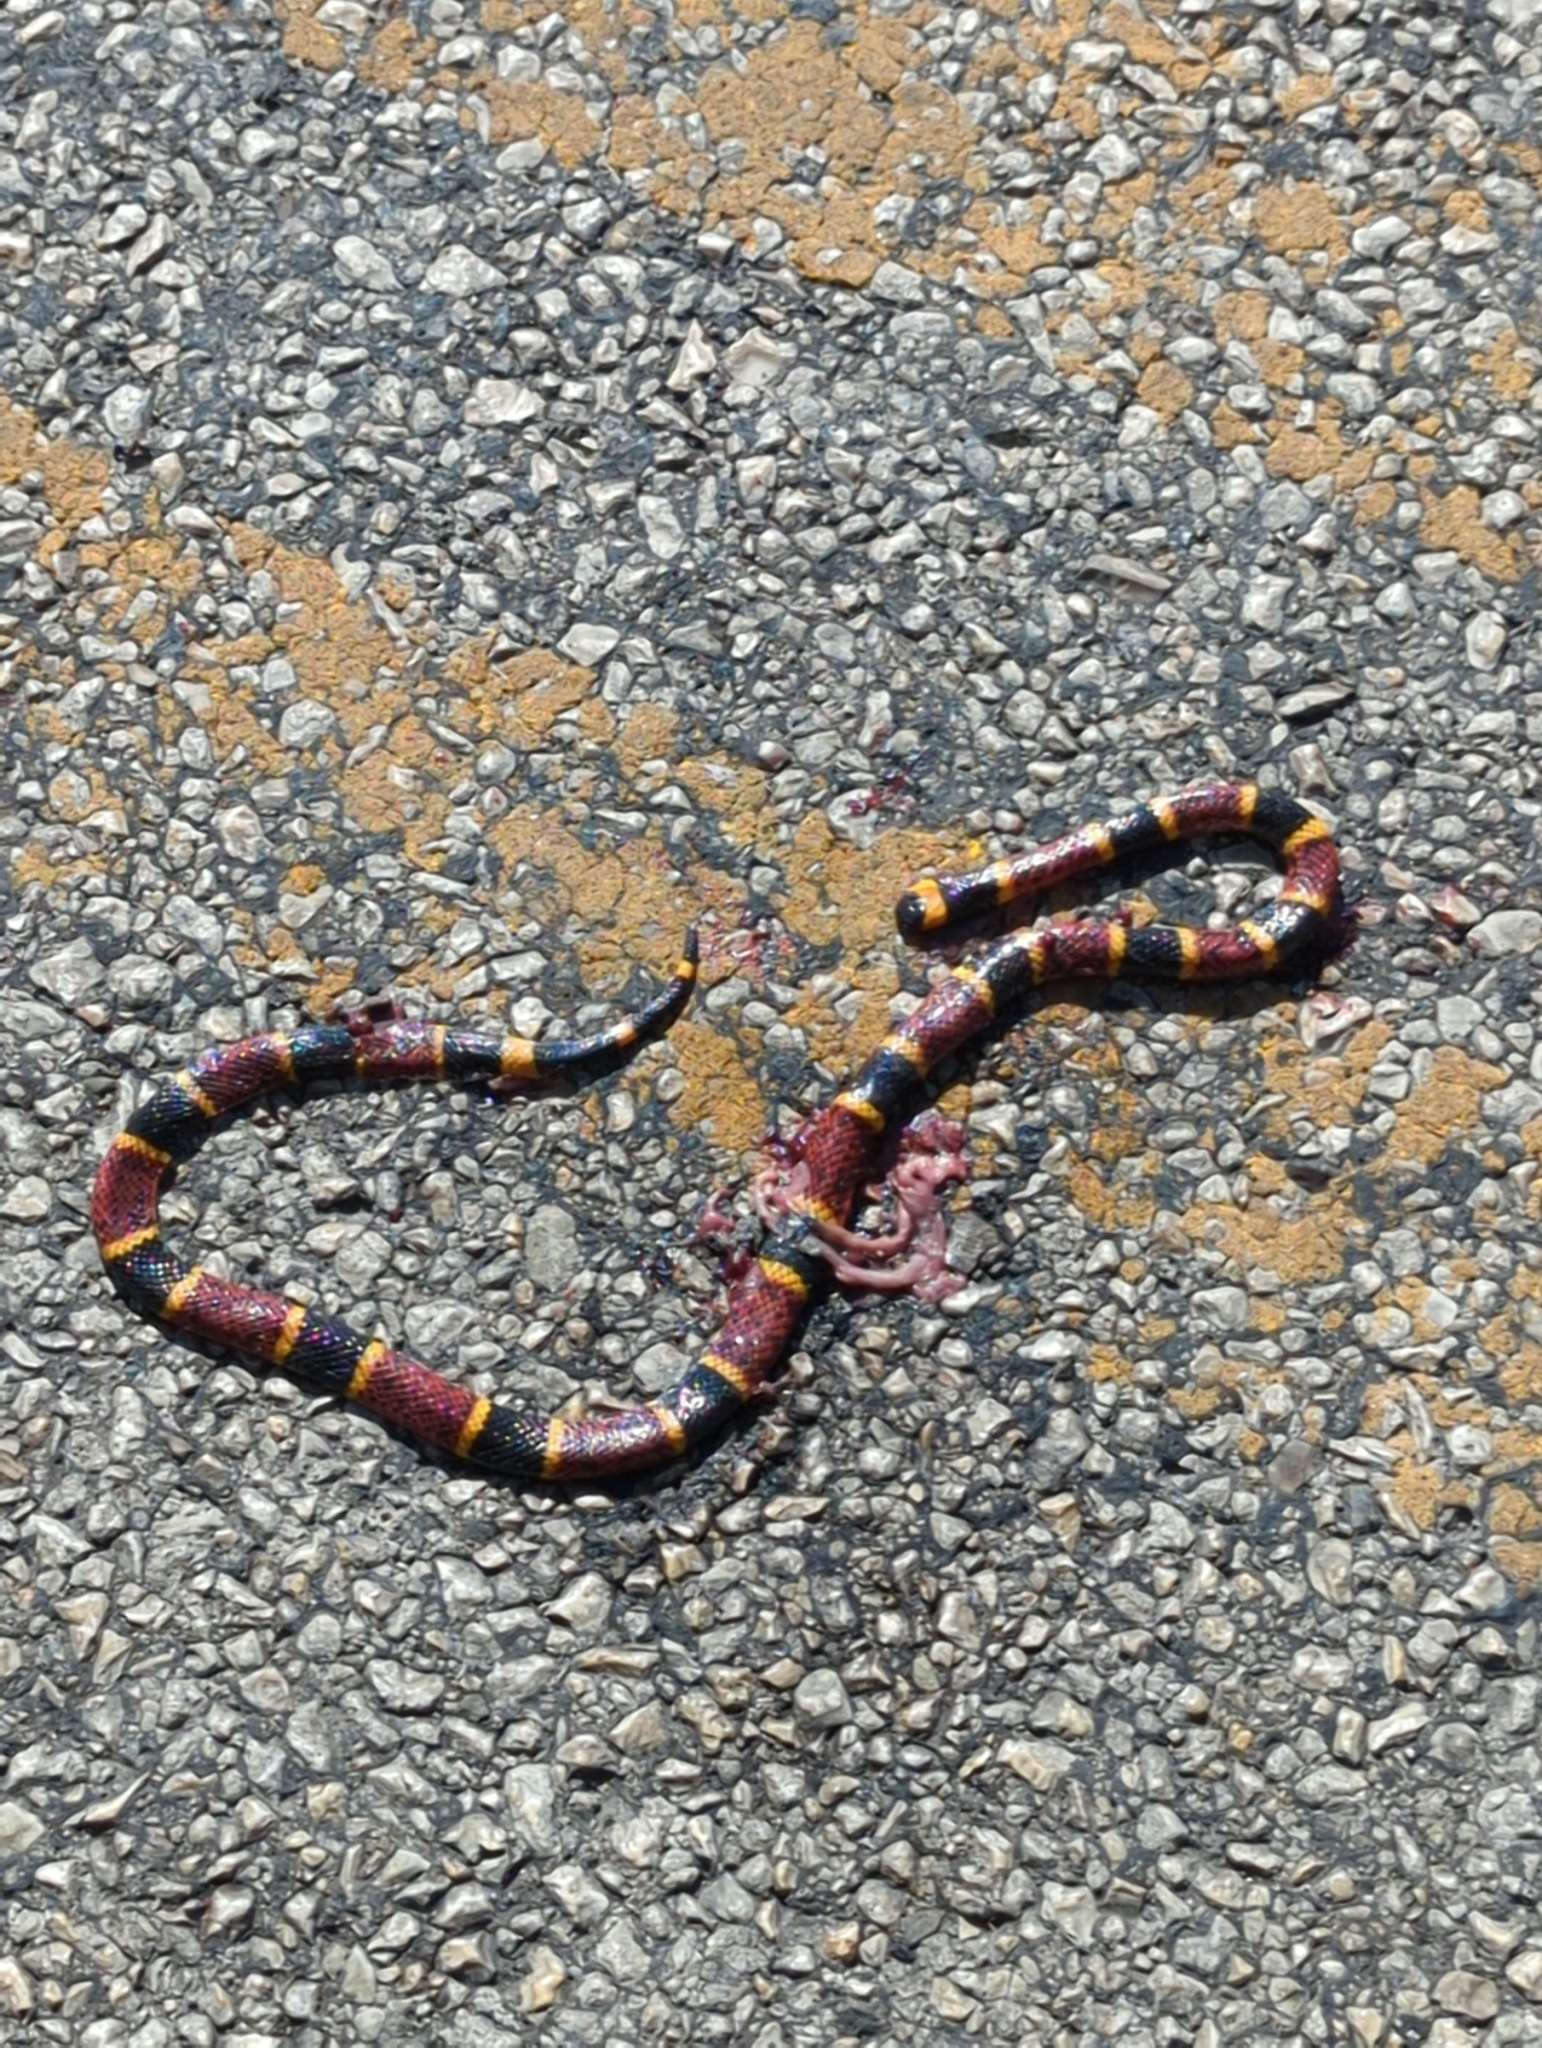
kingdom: Animalia
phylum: Chordata
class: Squamata
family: Elapidae
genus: Micrurus
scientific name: Micrurus tener
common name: Texas coral snake
